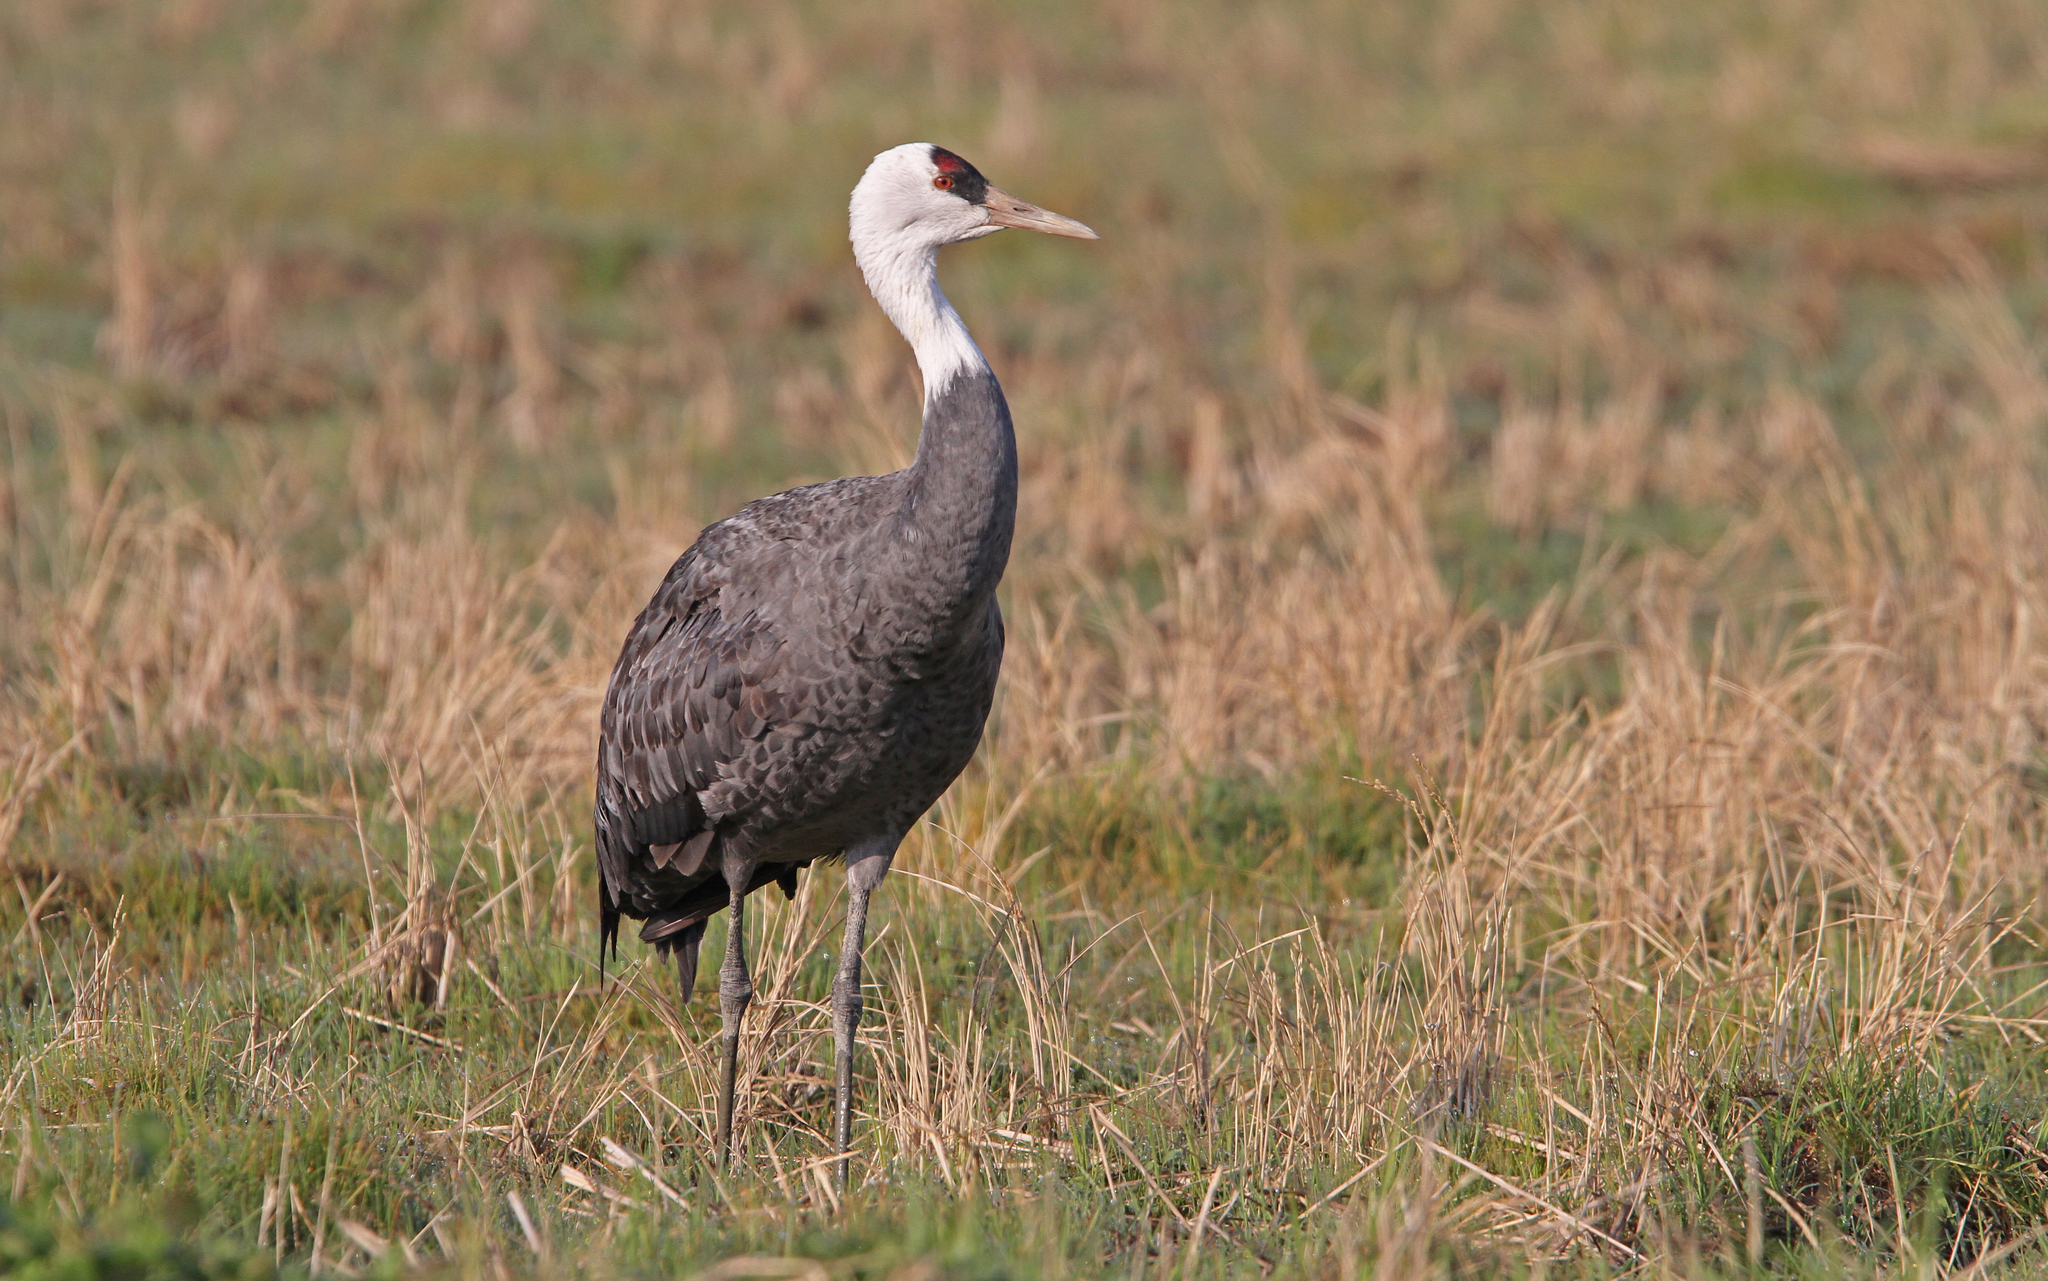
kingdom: Animalia
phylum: Chordata
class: Aves
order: Gruiformes
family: Gruidae
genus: Grus
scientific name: Grus monacha
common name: Hooded crane
